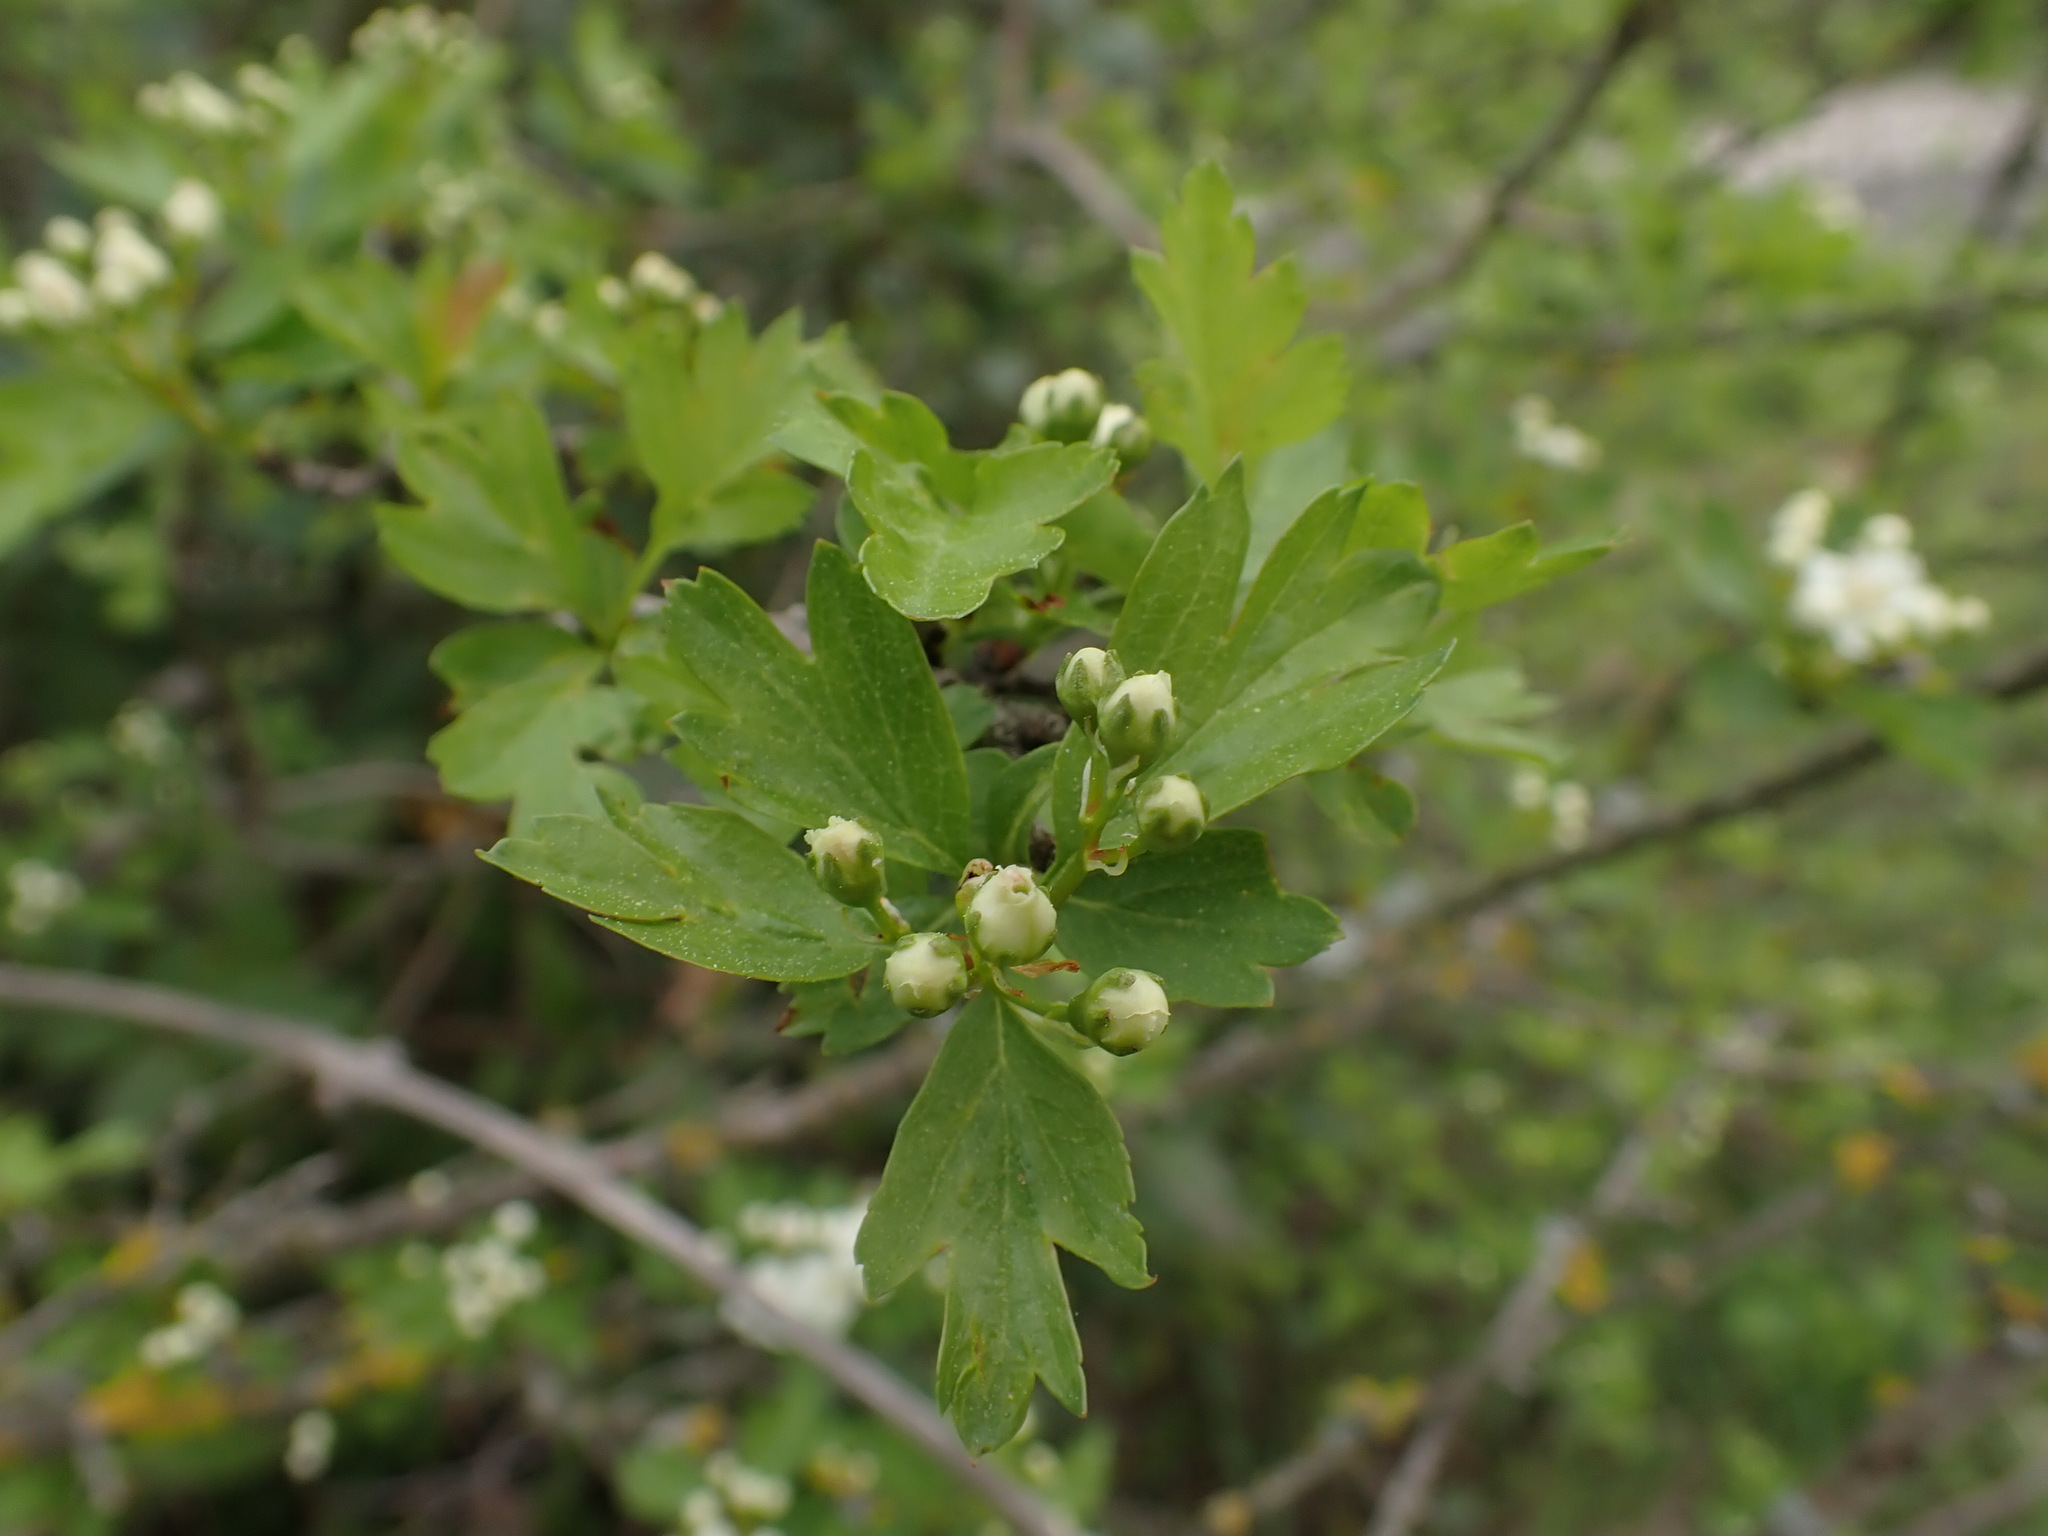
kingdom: Plantae
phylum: Tracheophyta
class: Magnoliopsida
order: Rosales
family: Rosaceae
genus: Crataegus
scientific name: Crataegus monogyna
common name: Hawthorn
